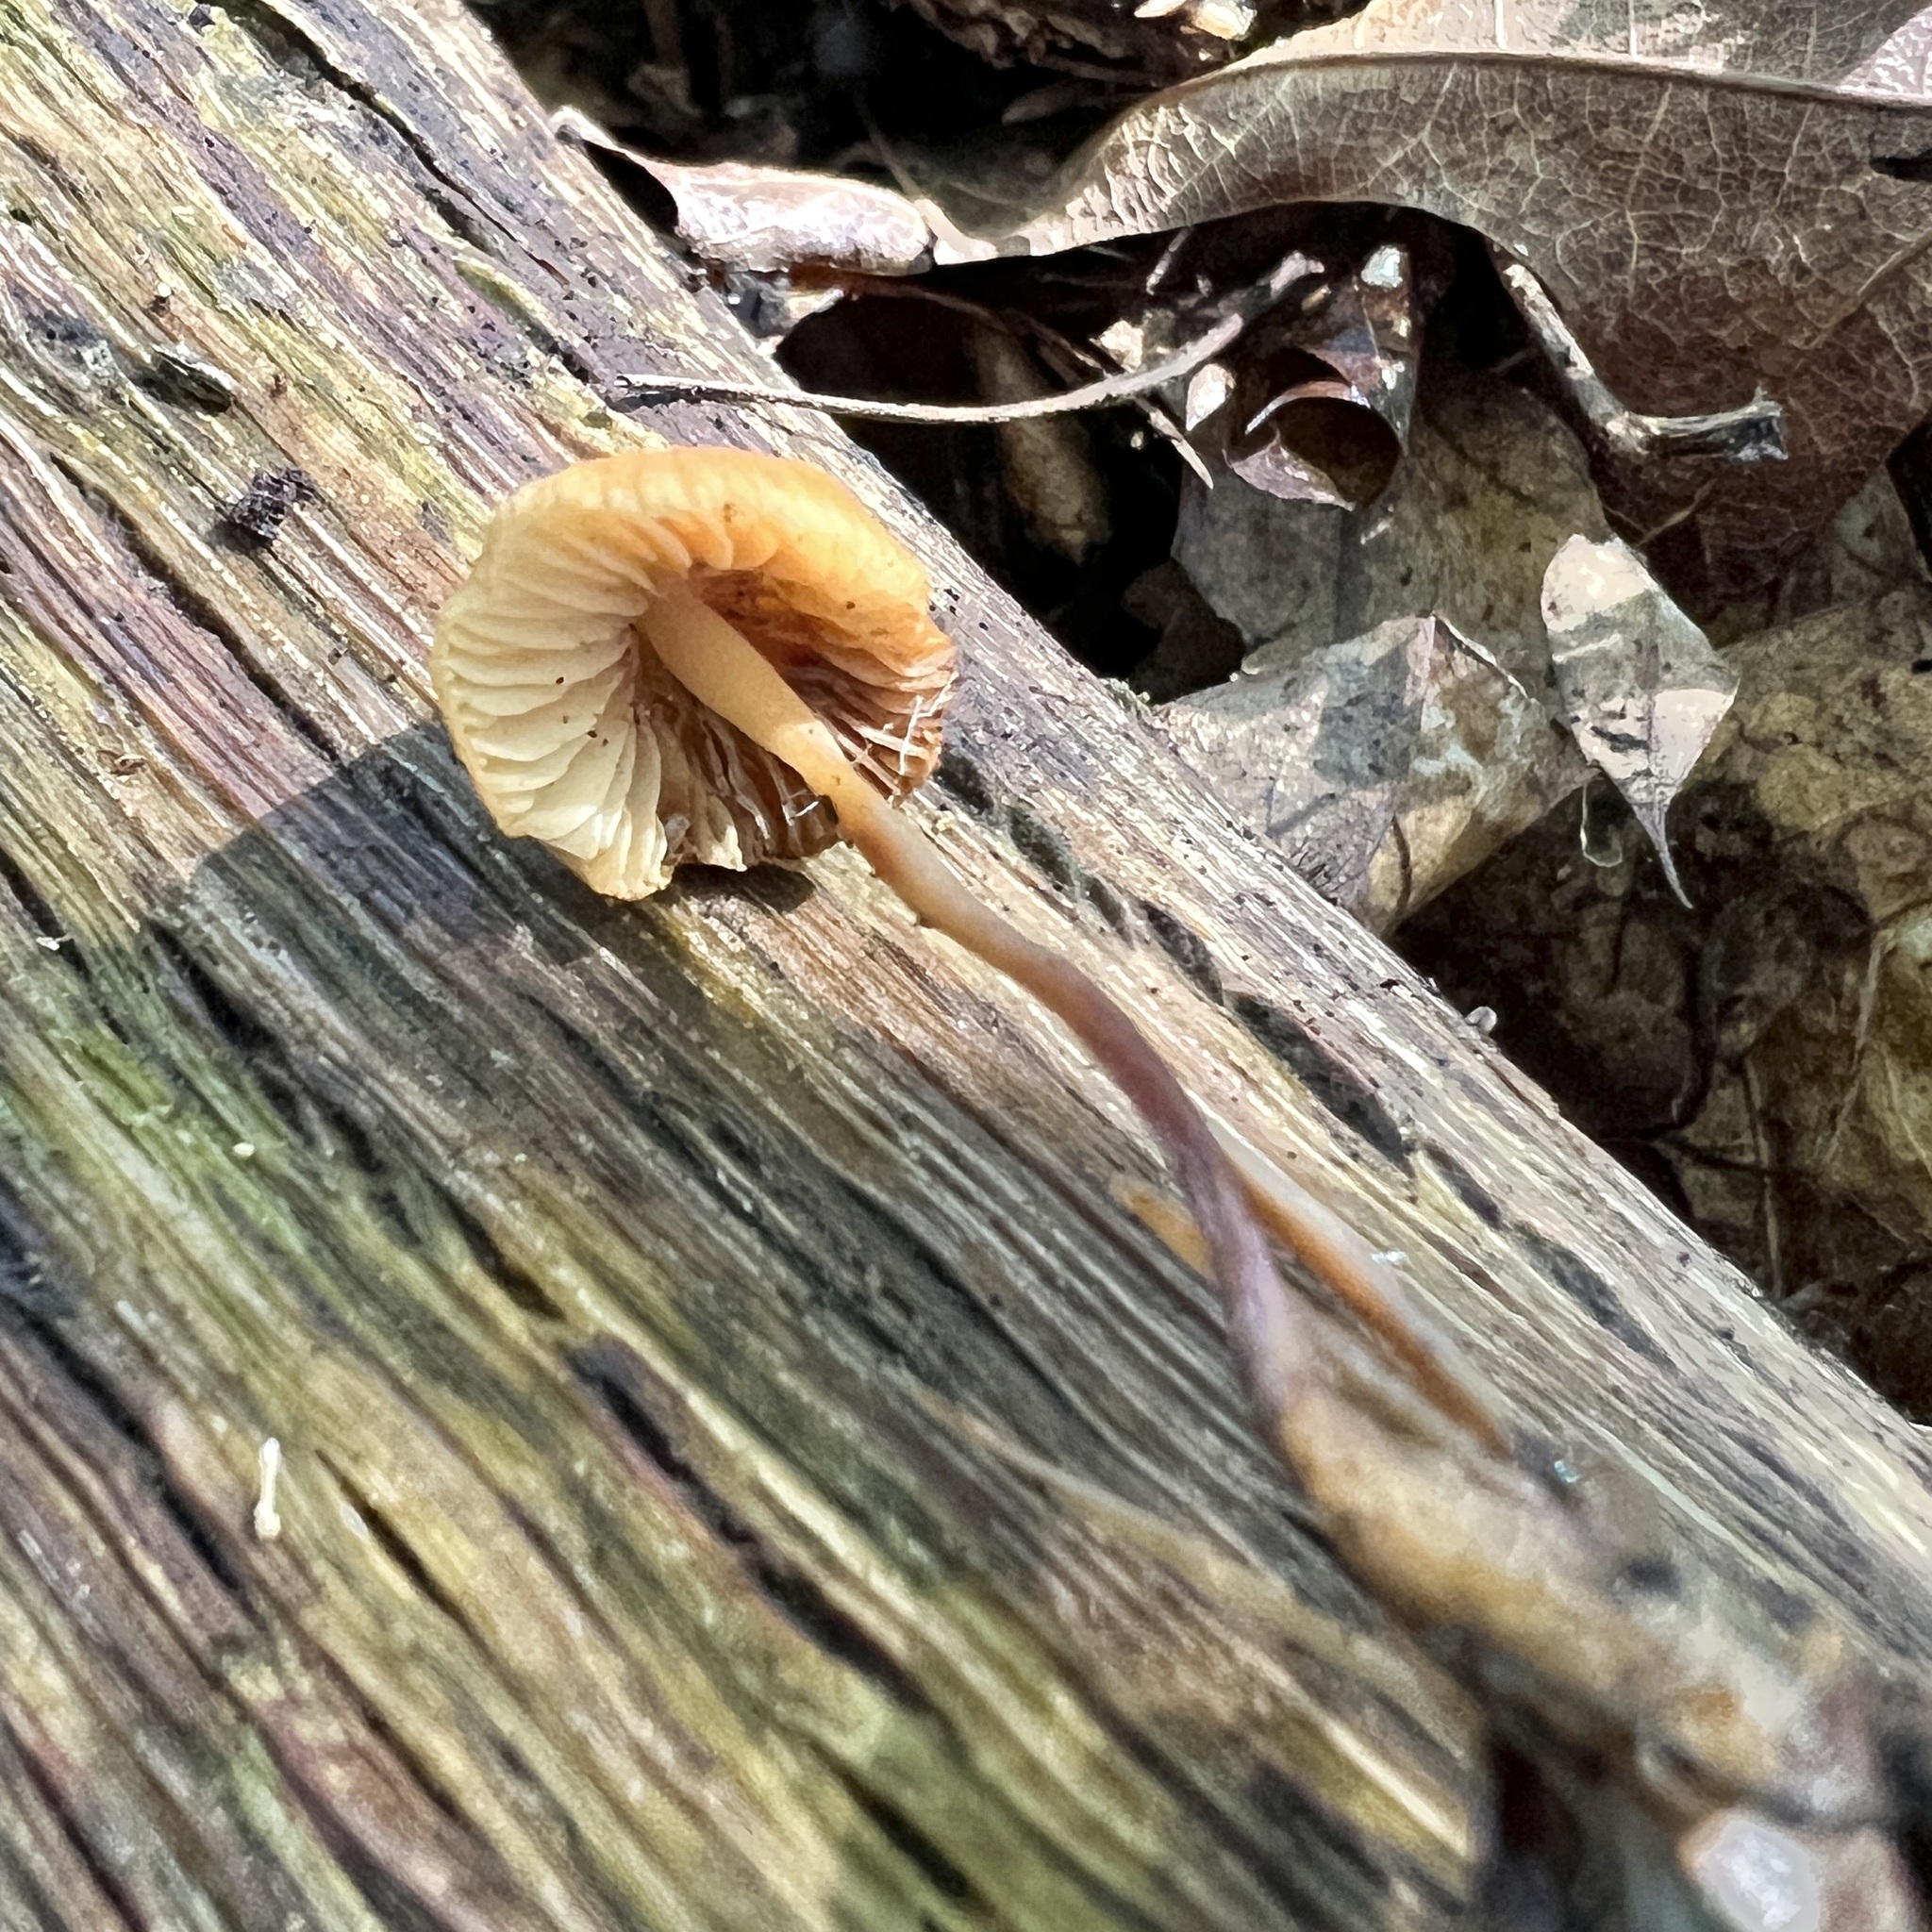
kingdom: Fungi
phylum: Basidiomycota
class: Agaricomycetes
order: Agaricales
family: Marasmiaceae
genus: Marasmius
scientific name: Marasmius sullivantii
